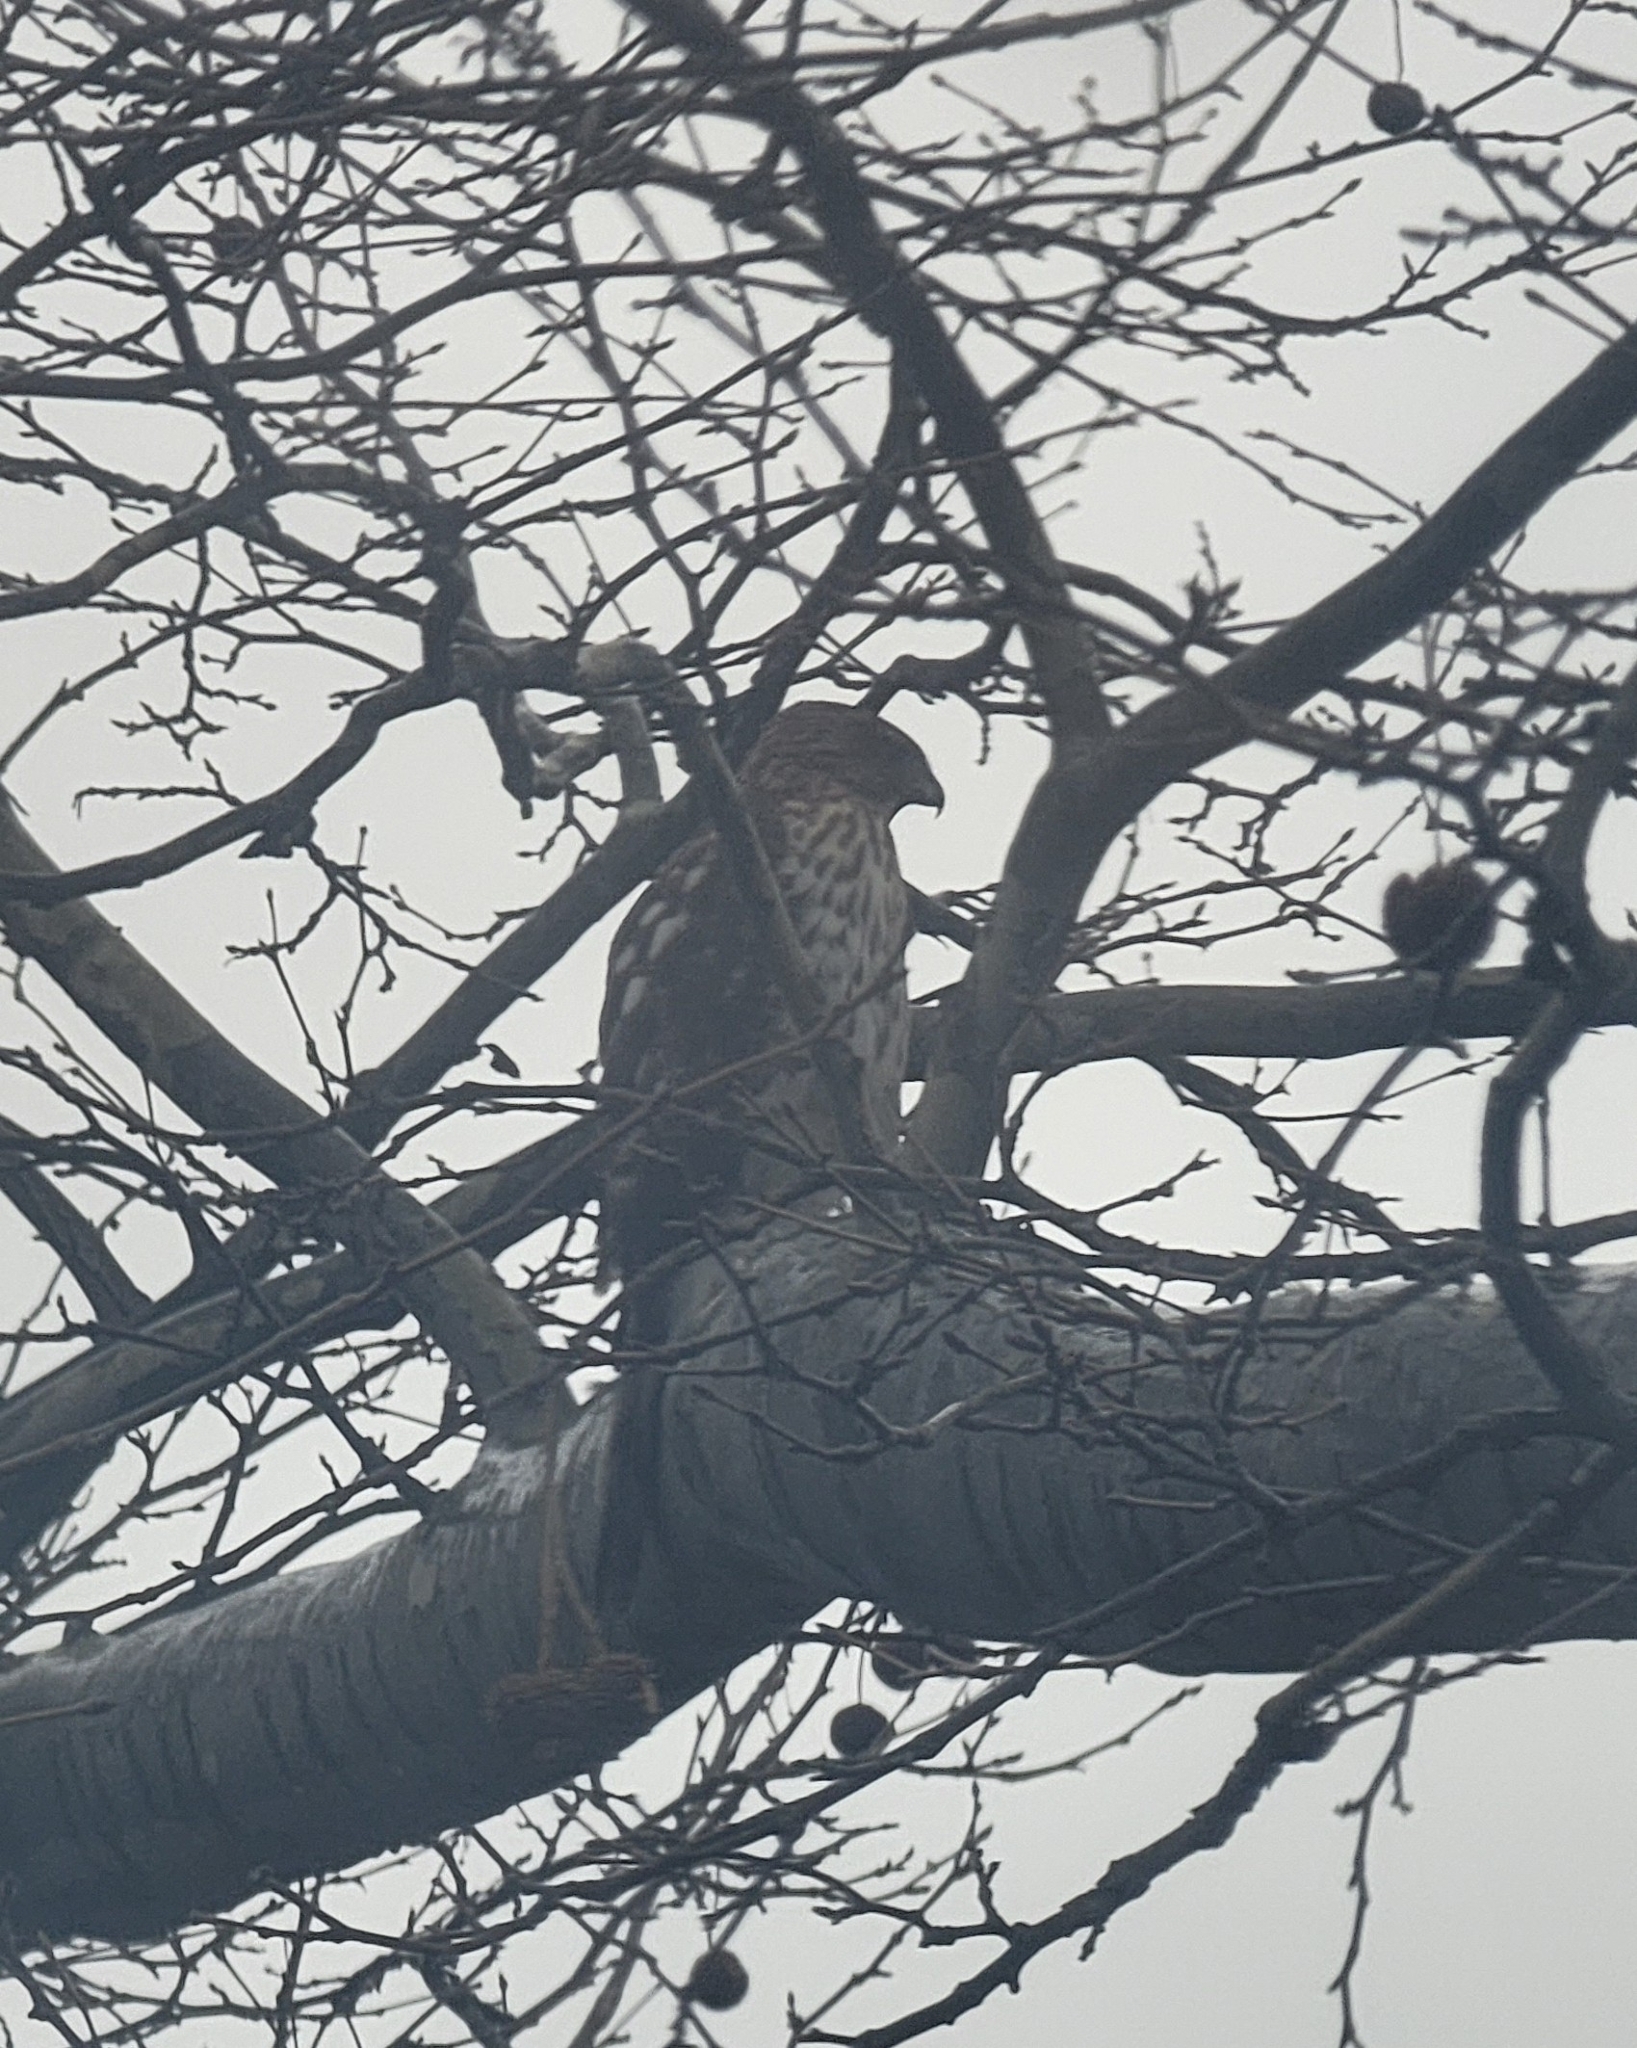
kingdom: Animalia
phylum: Chordata
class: Aves
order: Accipitriformes
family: Accipitridae
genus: Accipiter
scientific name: Accipiter cooperii
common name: Cooper's hawk
